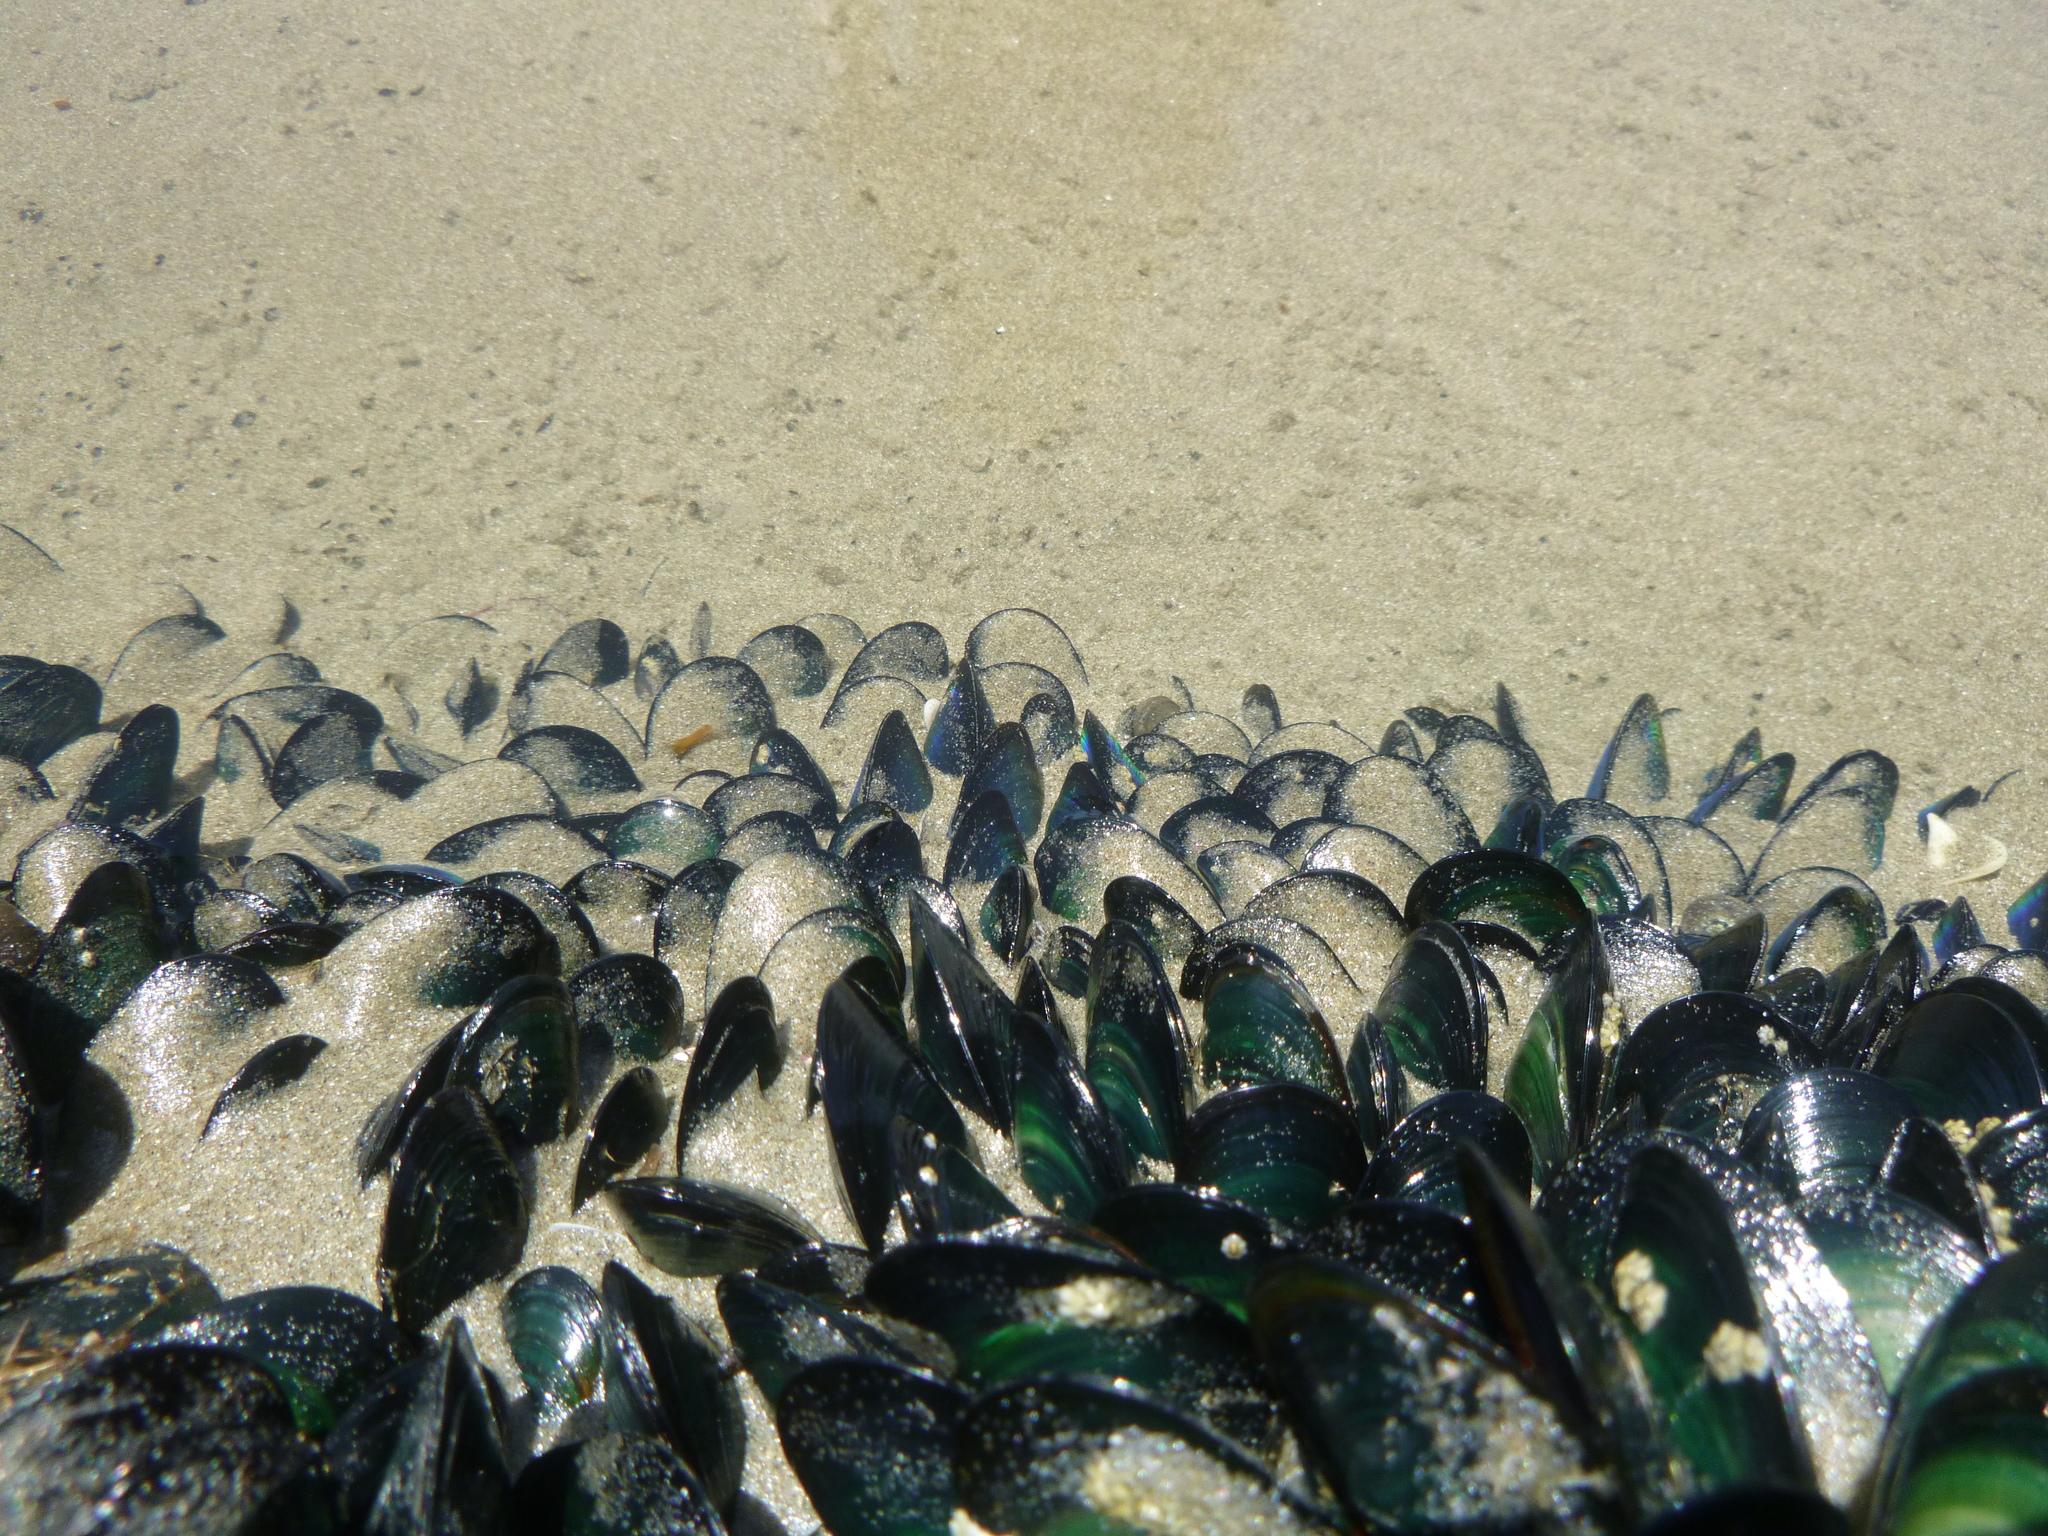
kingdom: Animalia
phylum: Mollusca
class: Bivalvia
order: Mytilida
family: Mytilidae
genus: Perna
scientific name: Perna canaliculus
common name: New zealand greenshelltm
